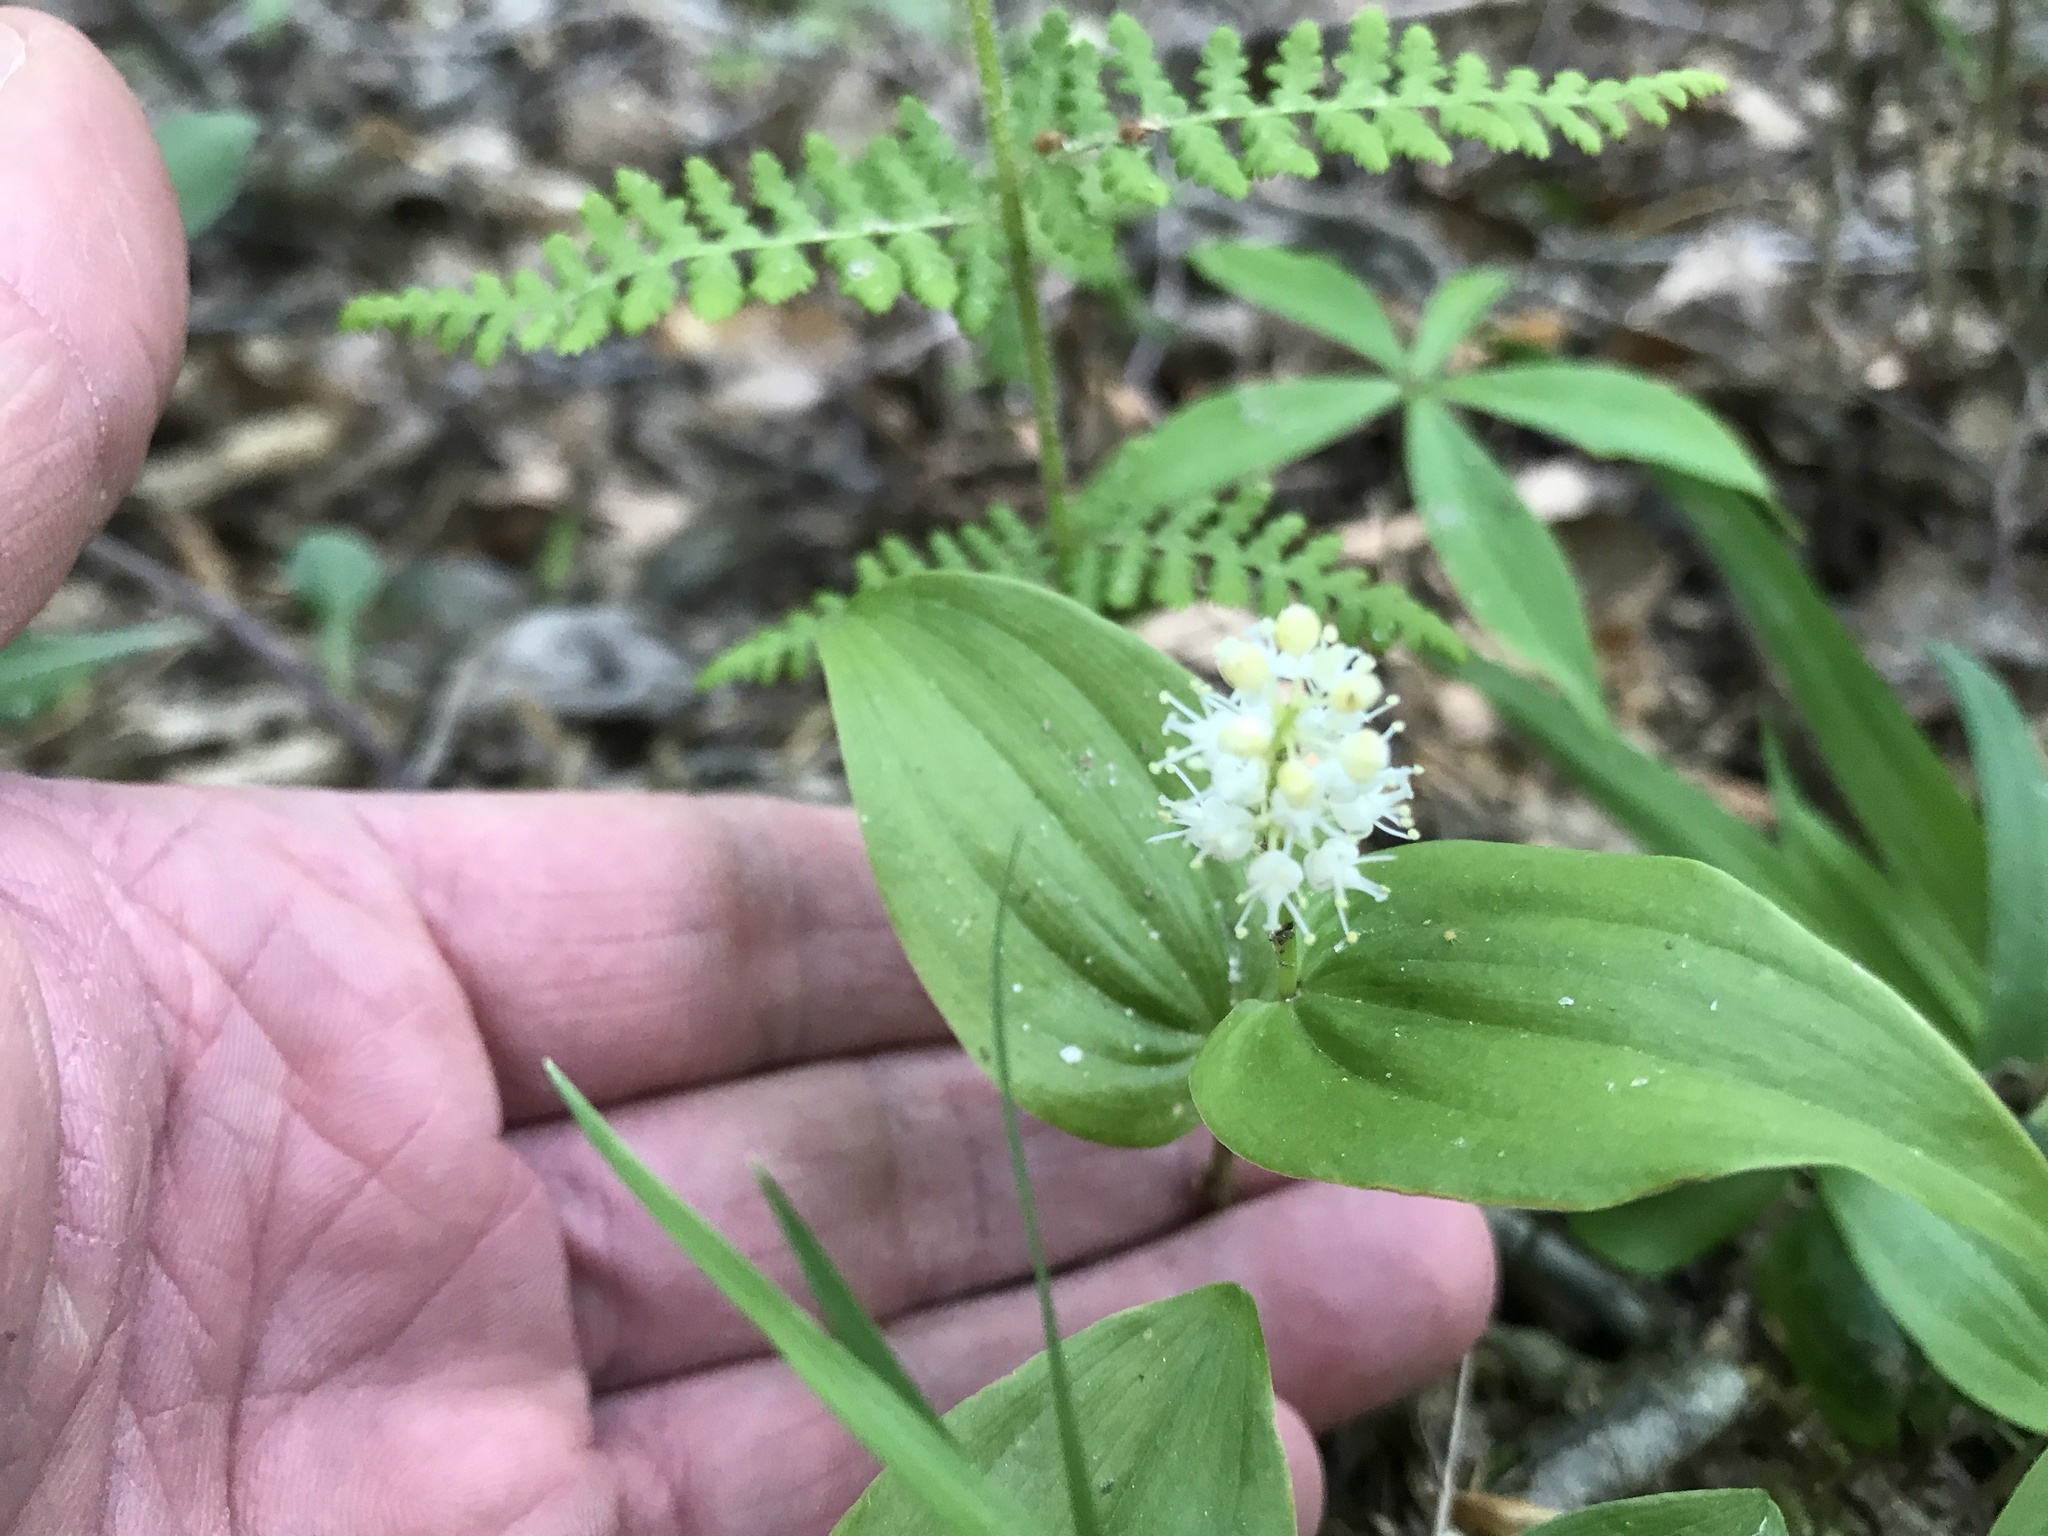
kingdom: Plantae
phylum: Tracheophyta
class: Liliopsida
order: Asparagales
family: Asparagaceae
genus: Maianthemum
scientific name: Maianthemum canadense
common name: False lily-of-the-valley
